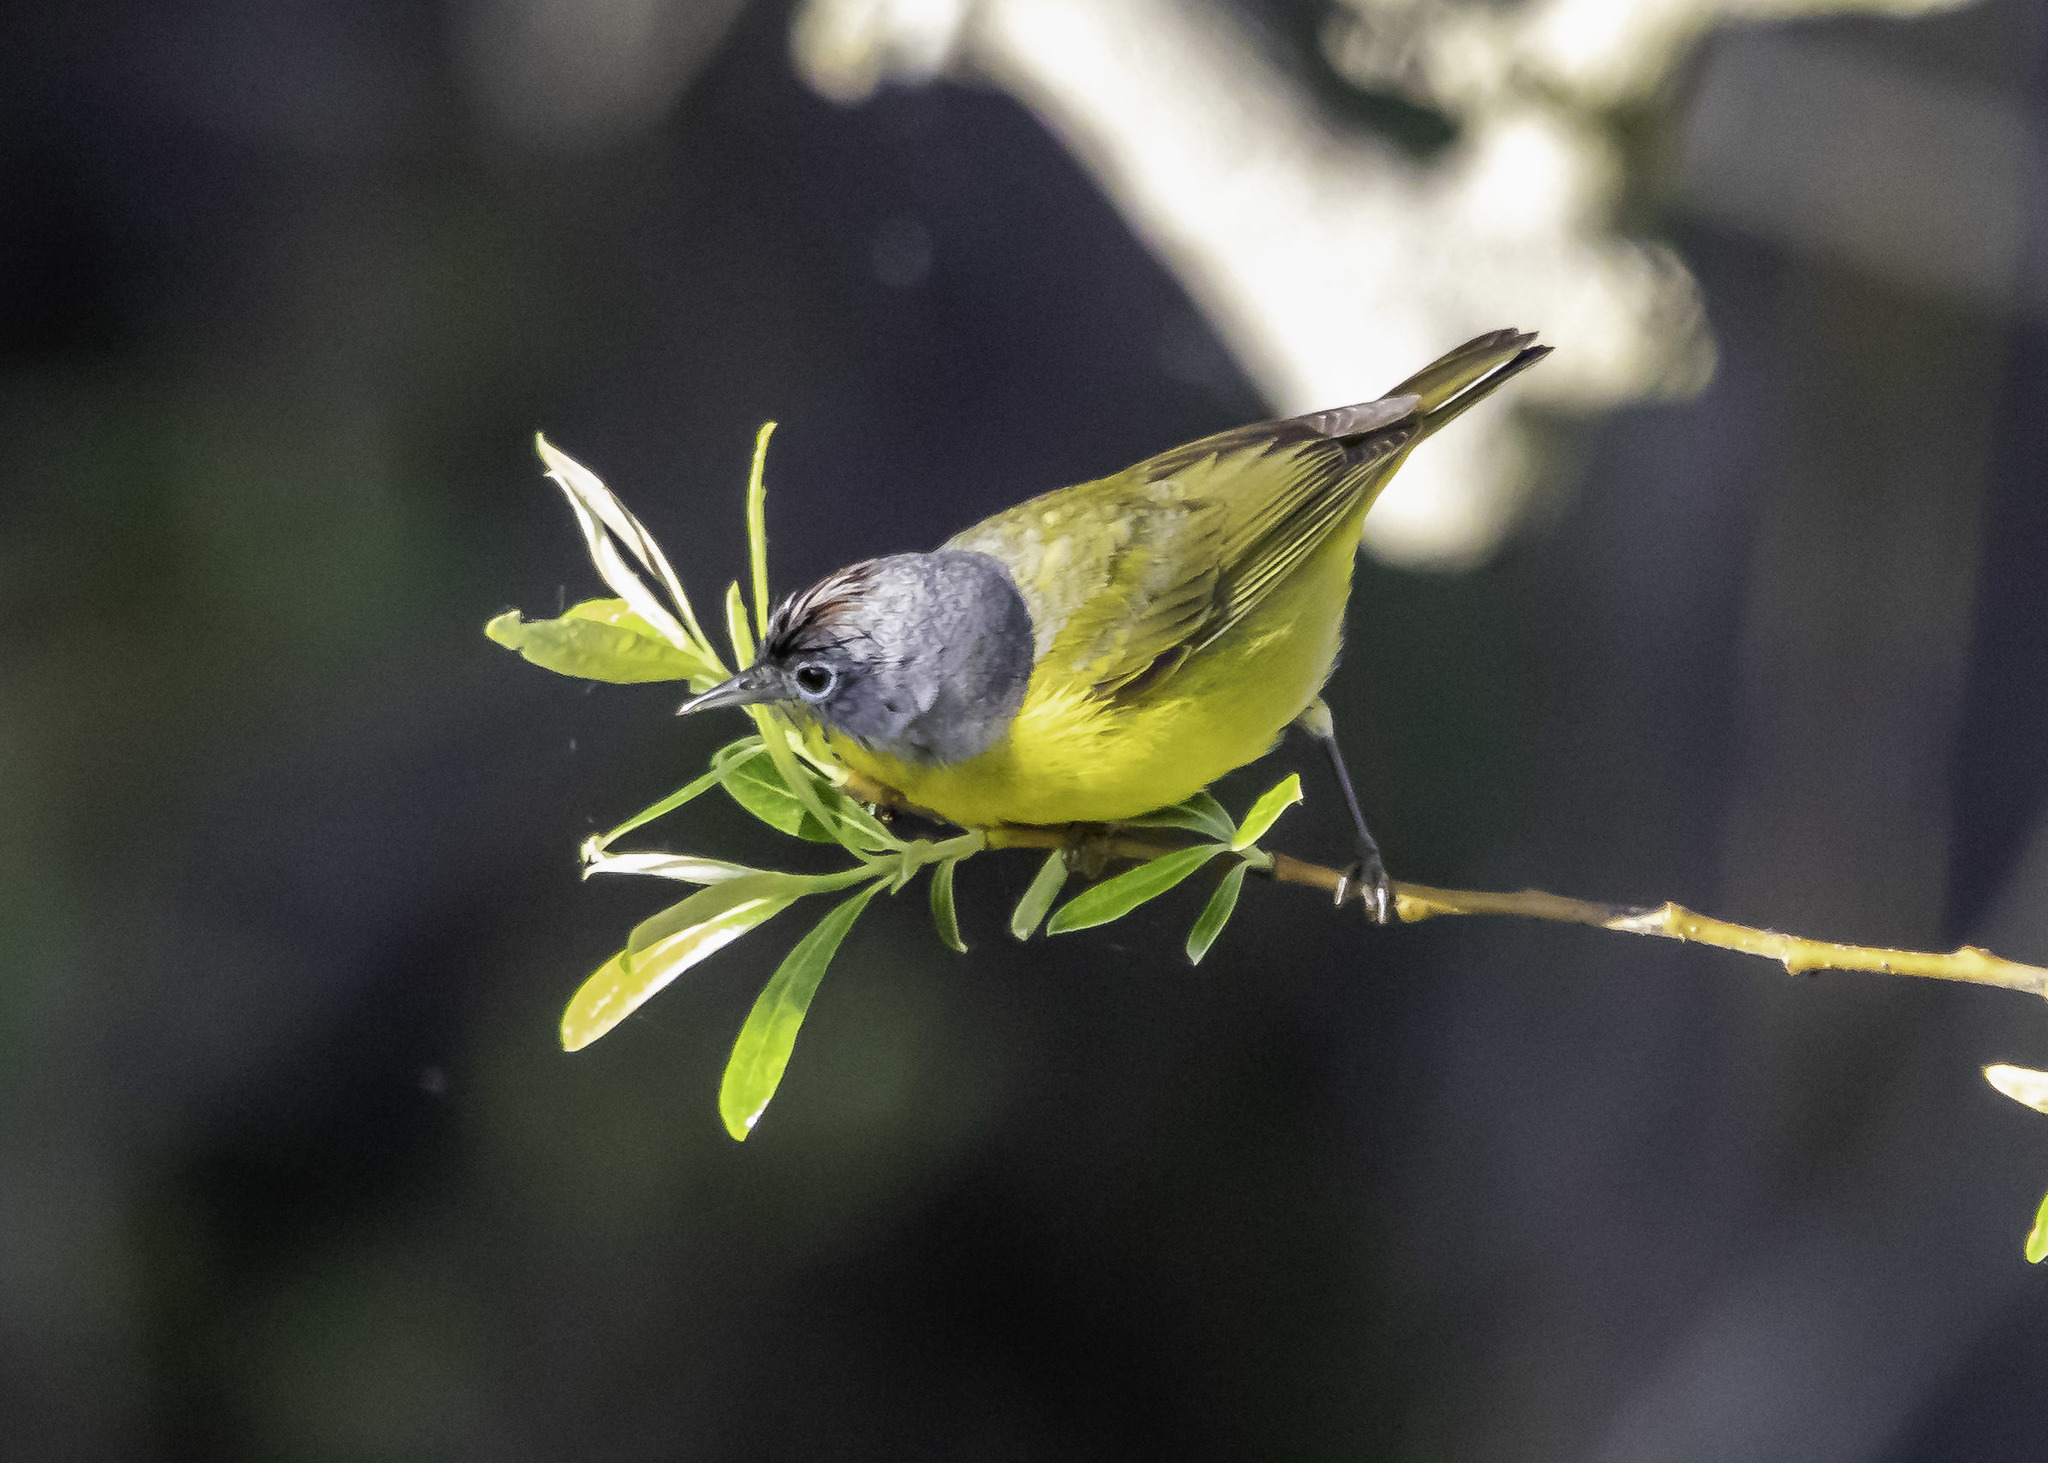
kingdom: Animalia
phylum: Chordata
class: Aves
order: Passeriformes
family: Parulidae
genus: Leiothlypis
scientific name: Leiothlypis ruficapilla
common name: Nashville warbler
